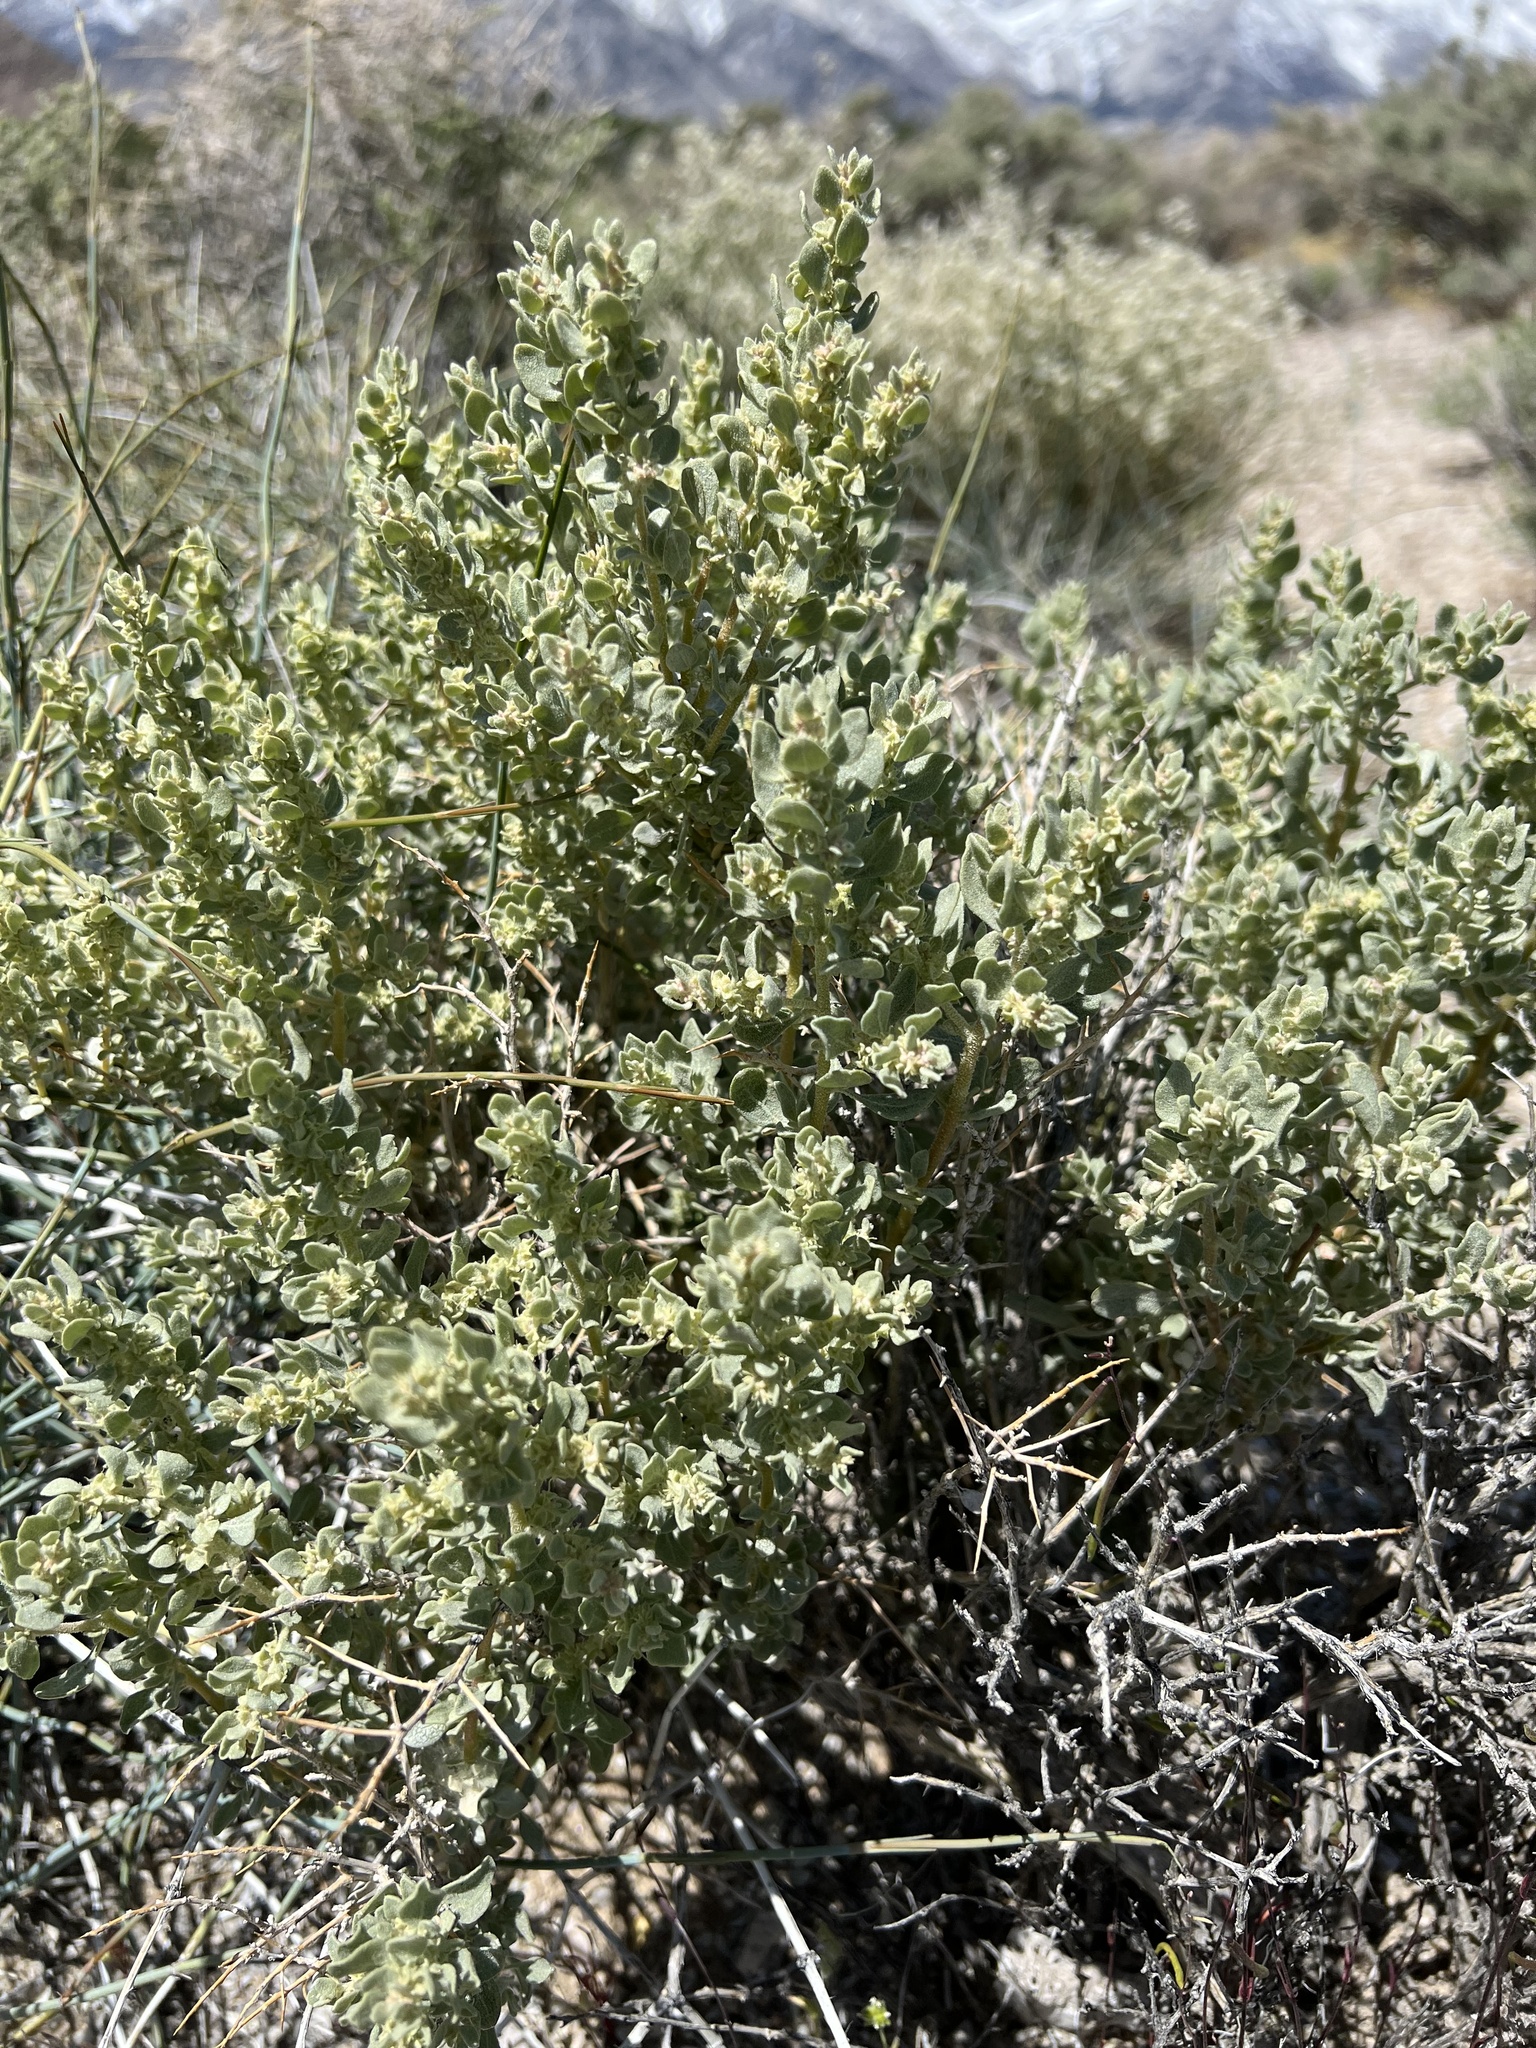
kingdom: Plantae
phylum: Tracheophyta
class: Magnoliopsida
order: Caryophyllales
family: Amaranthaceae
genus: Atriplex
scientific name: Atriplex confertifolia
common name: Shadscale
